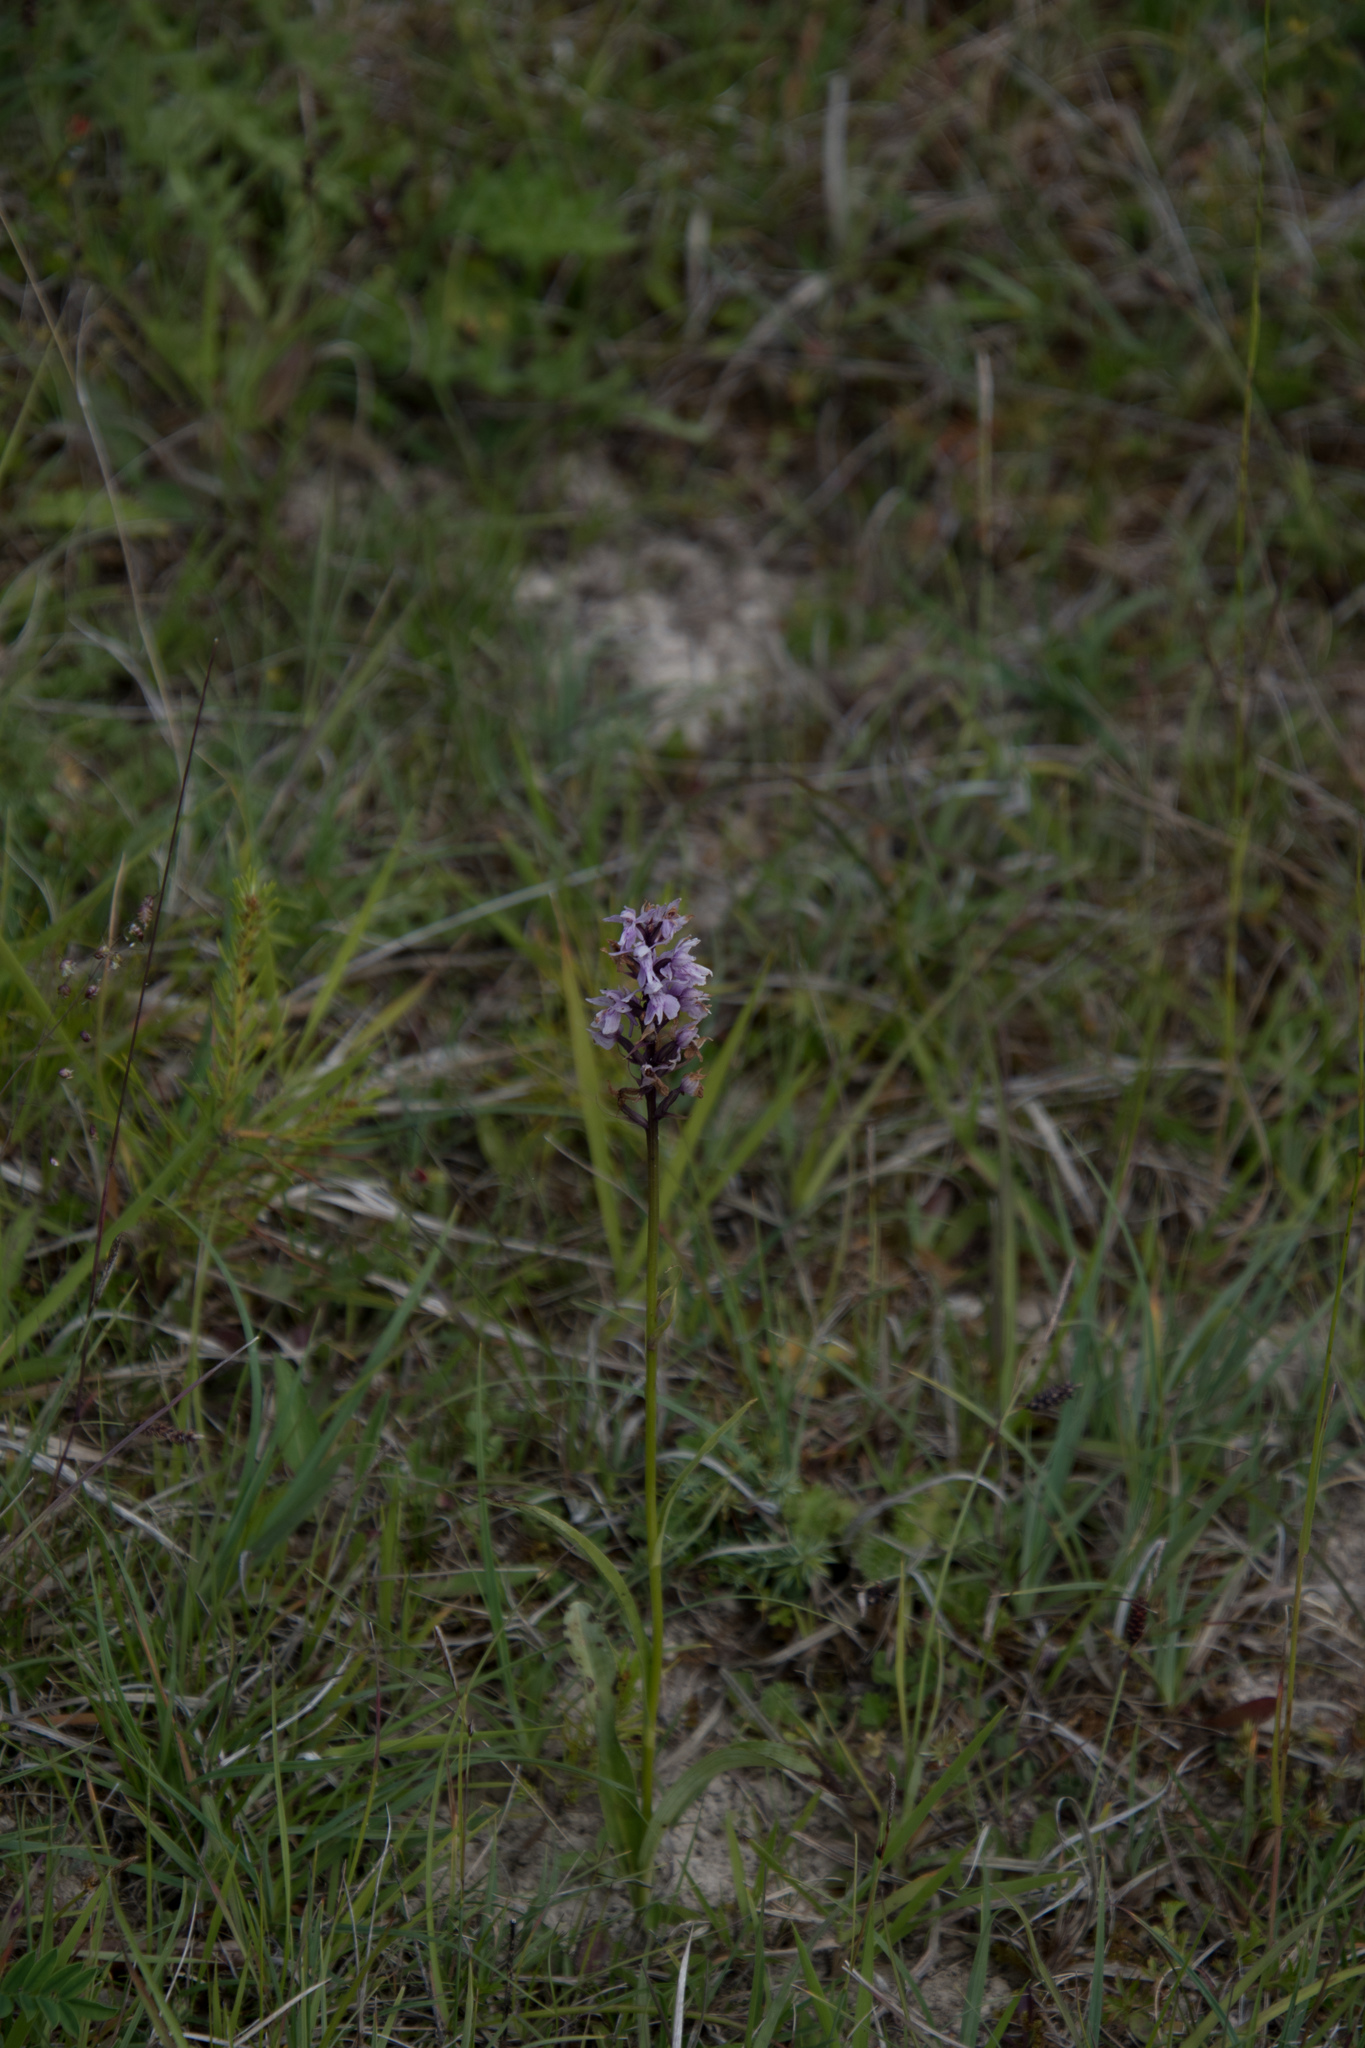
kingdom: Plantae
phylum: Tracheophyta
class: Liliopsida
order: Asparagales
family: Orchidaceae
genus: Dactylorhiza
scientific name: Dactylorhiza maculata
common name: Heath spotted-orchid
